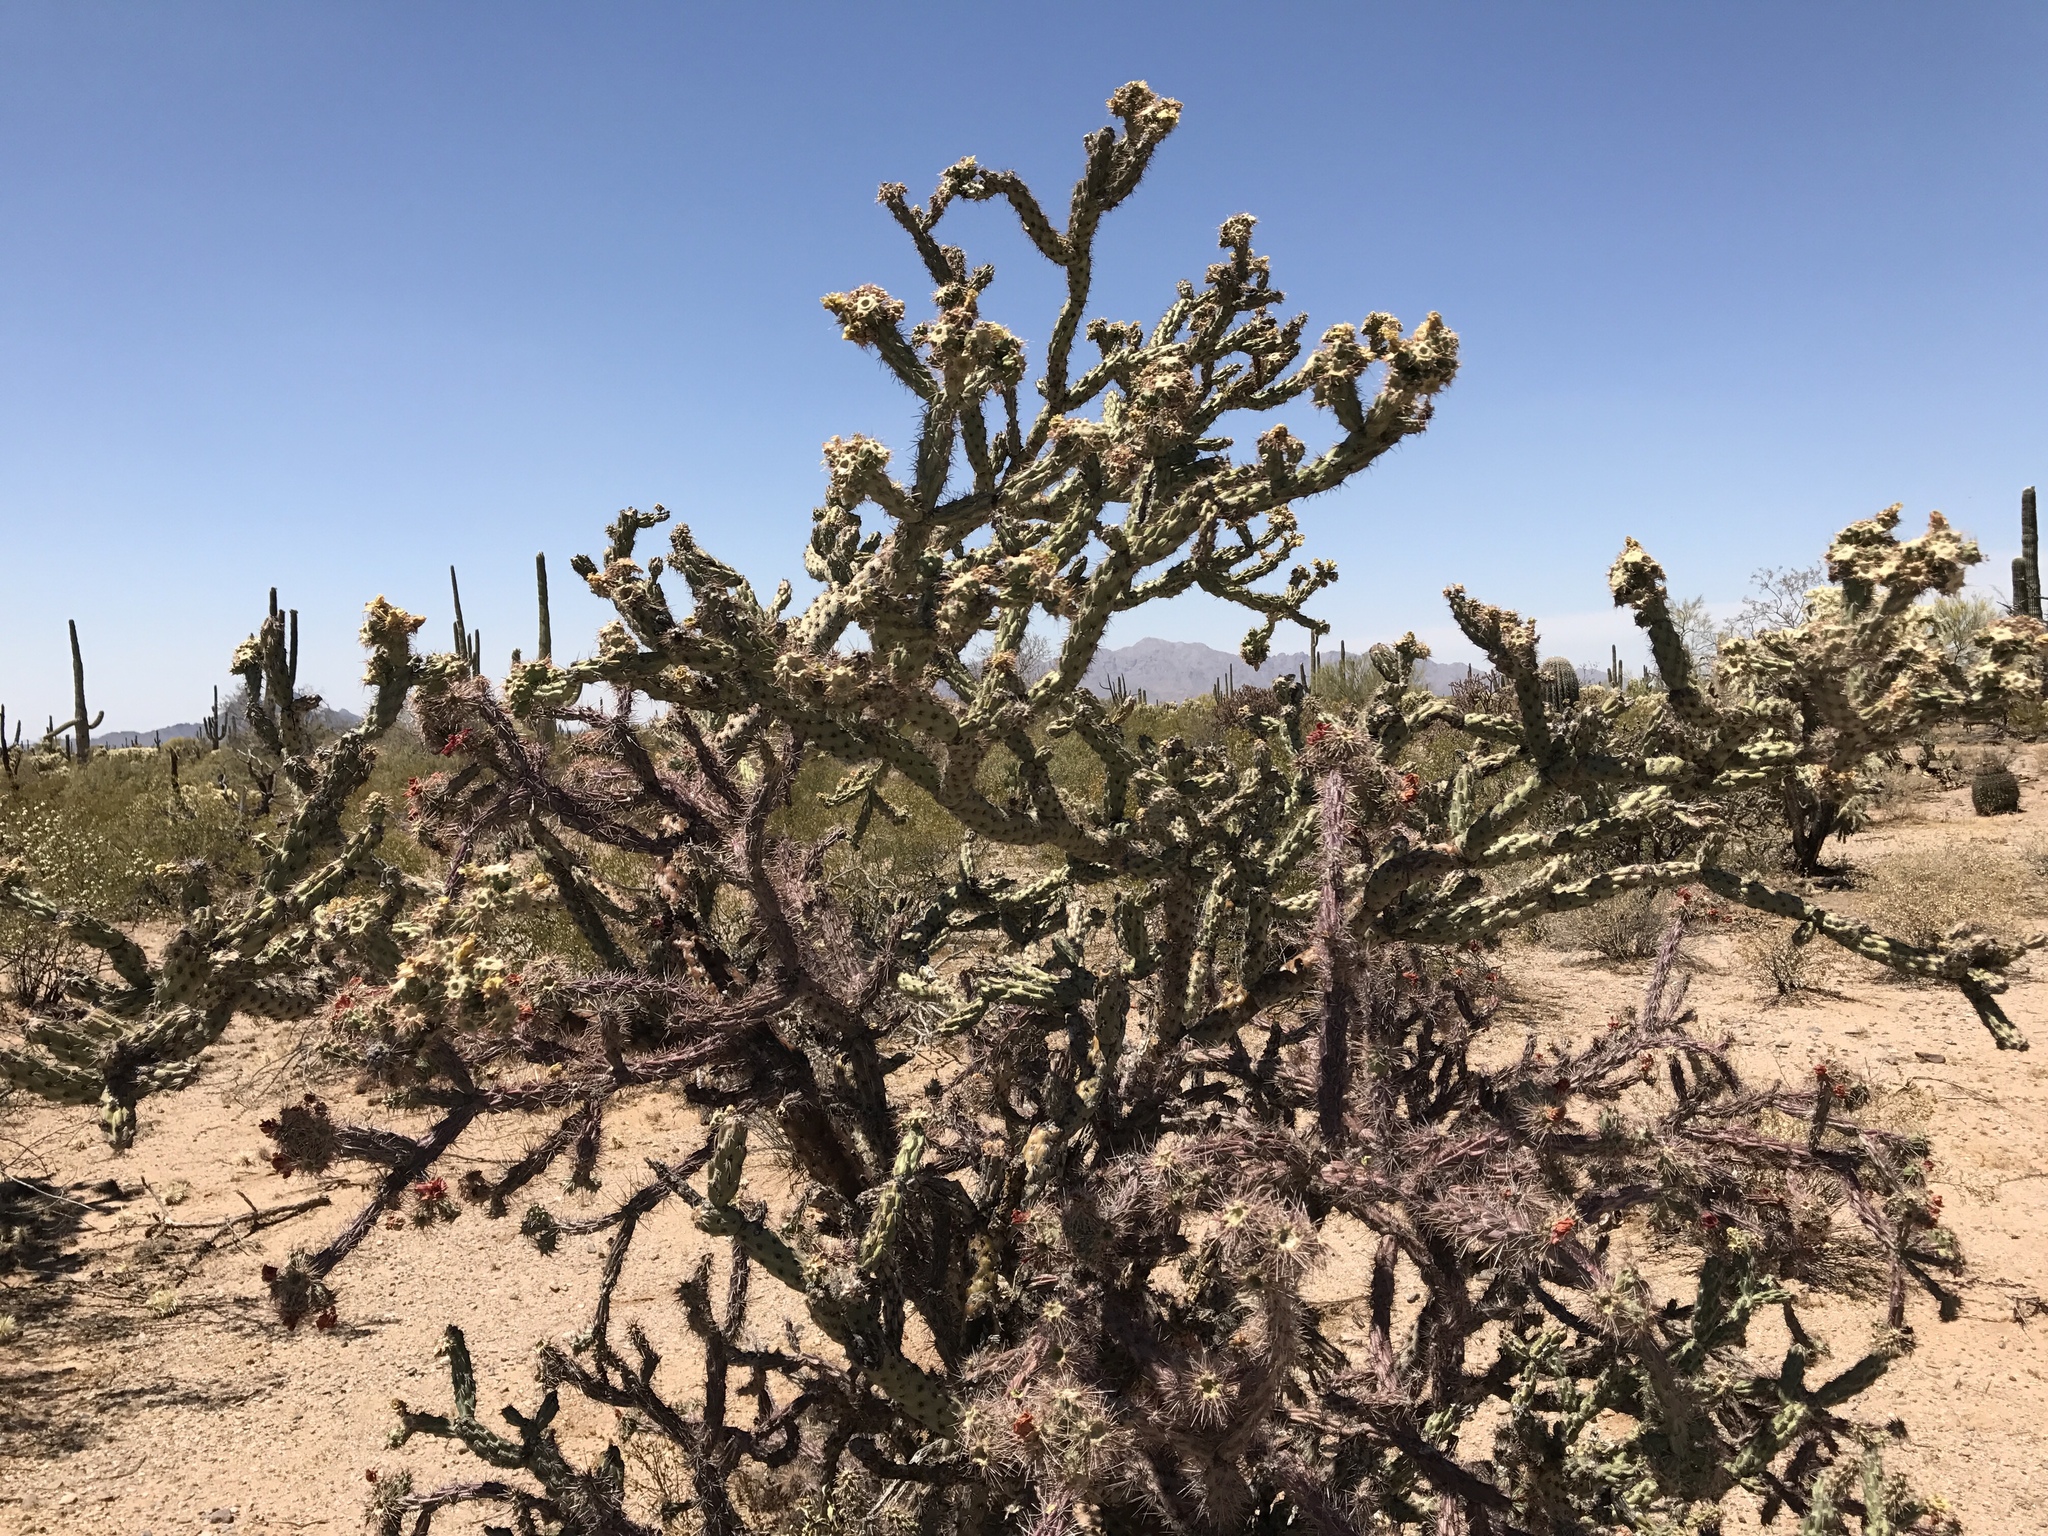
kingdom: Plantae
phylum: Tracheophyta
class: Magnoliopsida
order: Caryophyllales
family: Cactaceae
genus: Cylindropuntia
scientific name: Cylindropuntia thurberi
